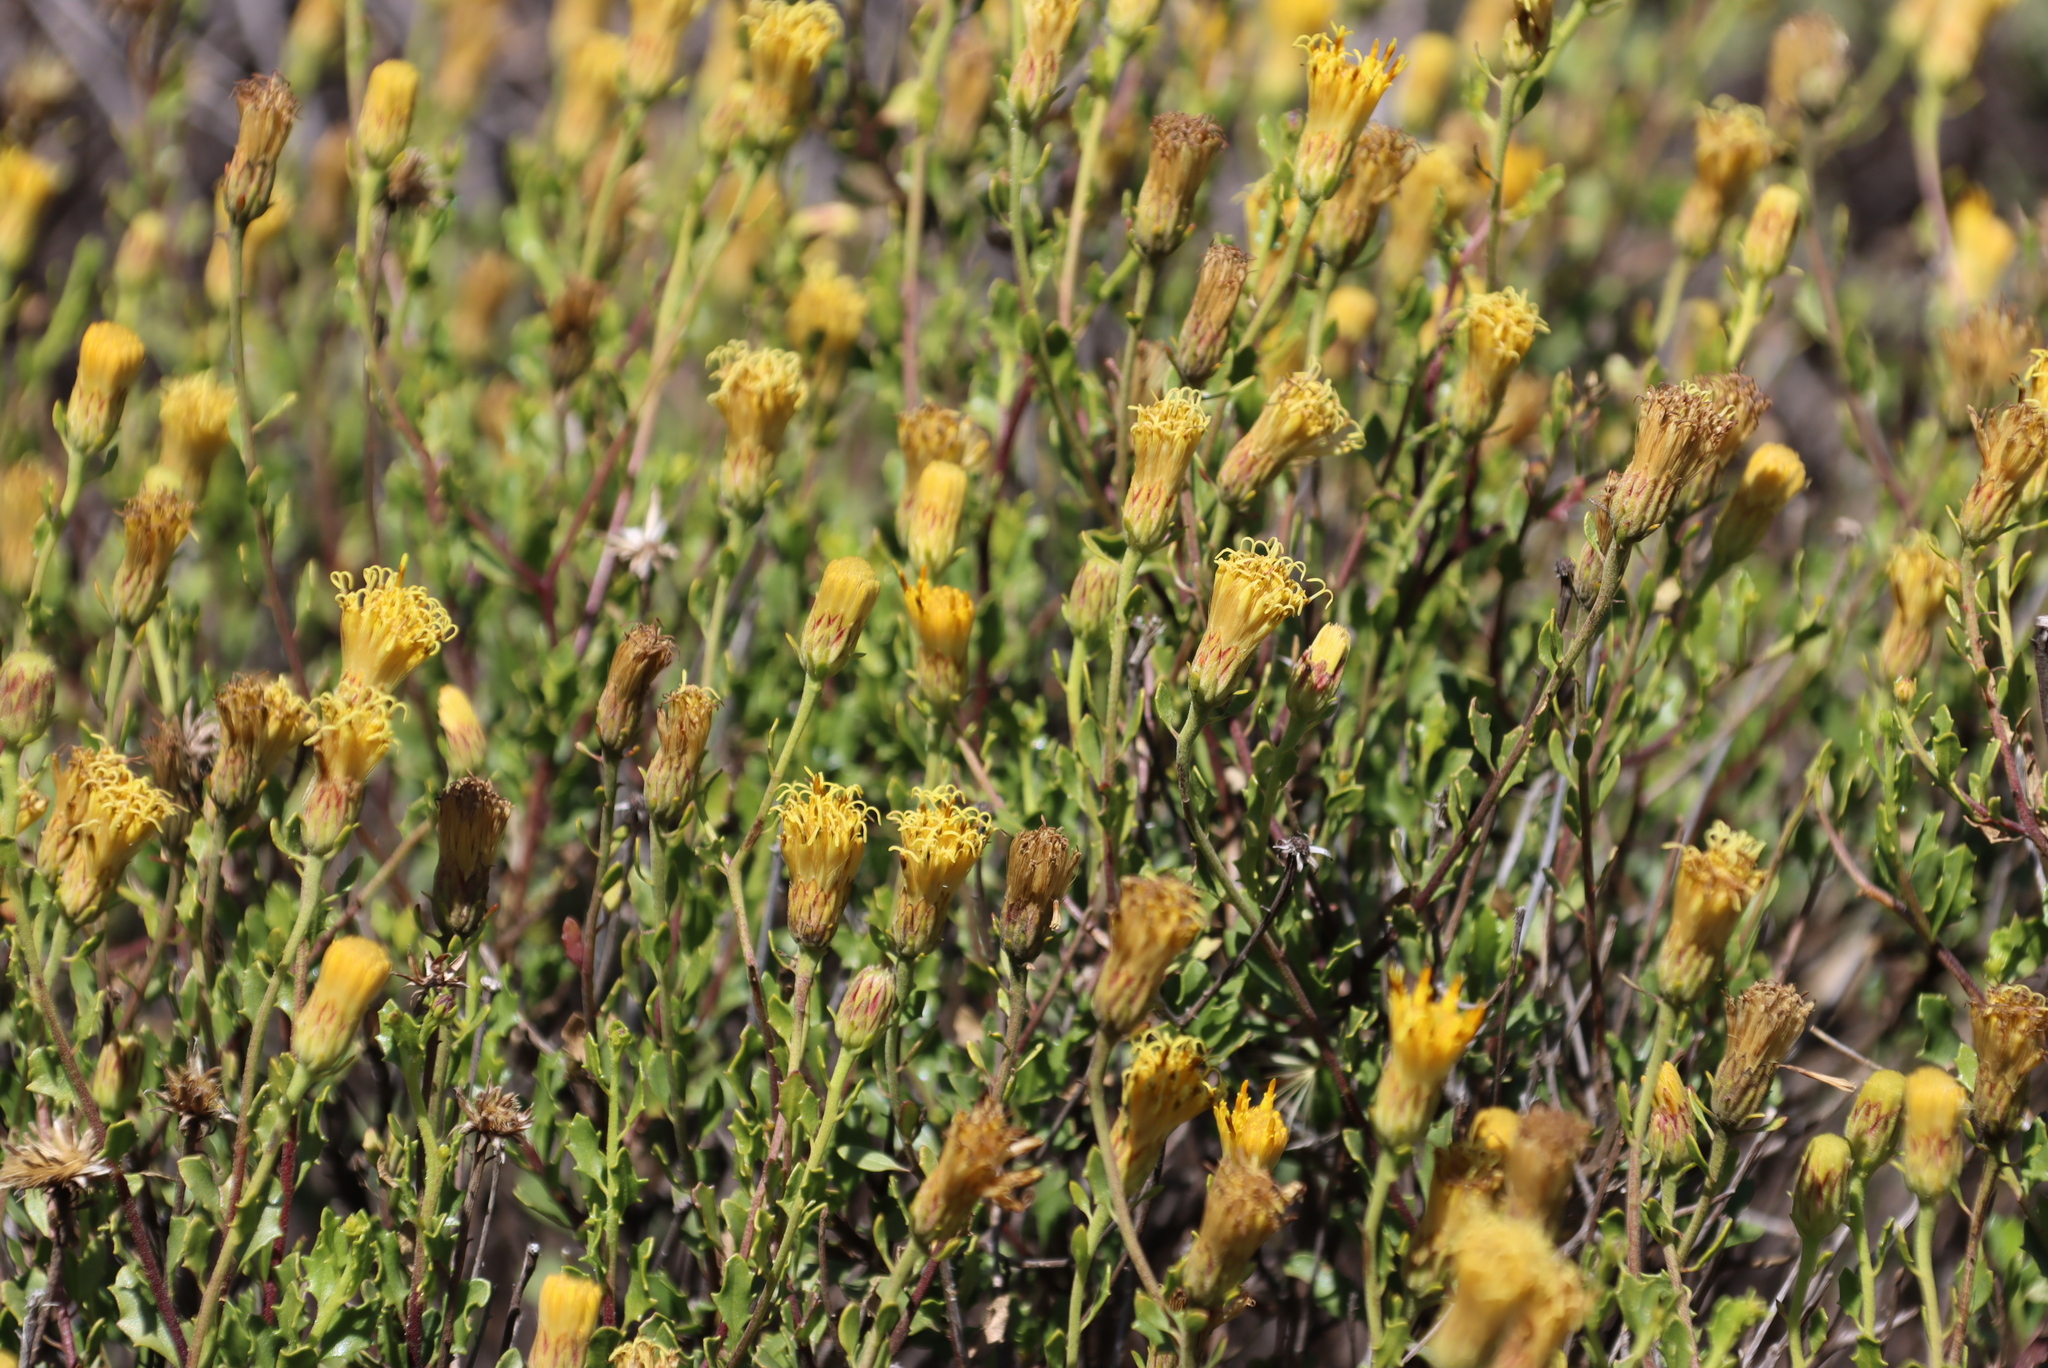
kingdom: Plantae
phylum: Tracheophyta
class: Magnoliopsida
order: Asterales
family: Asteraceae
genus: Pegolettia
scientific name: Pegolettia baccaridifolia
